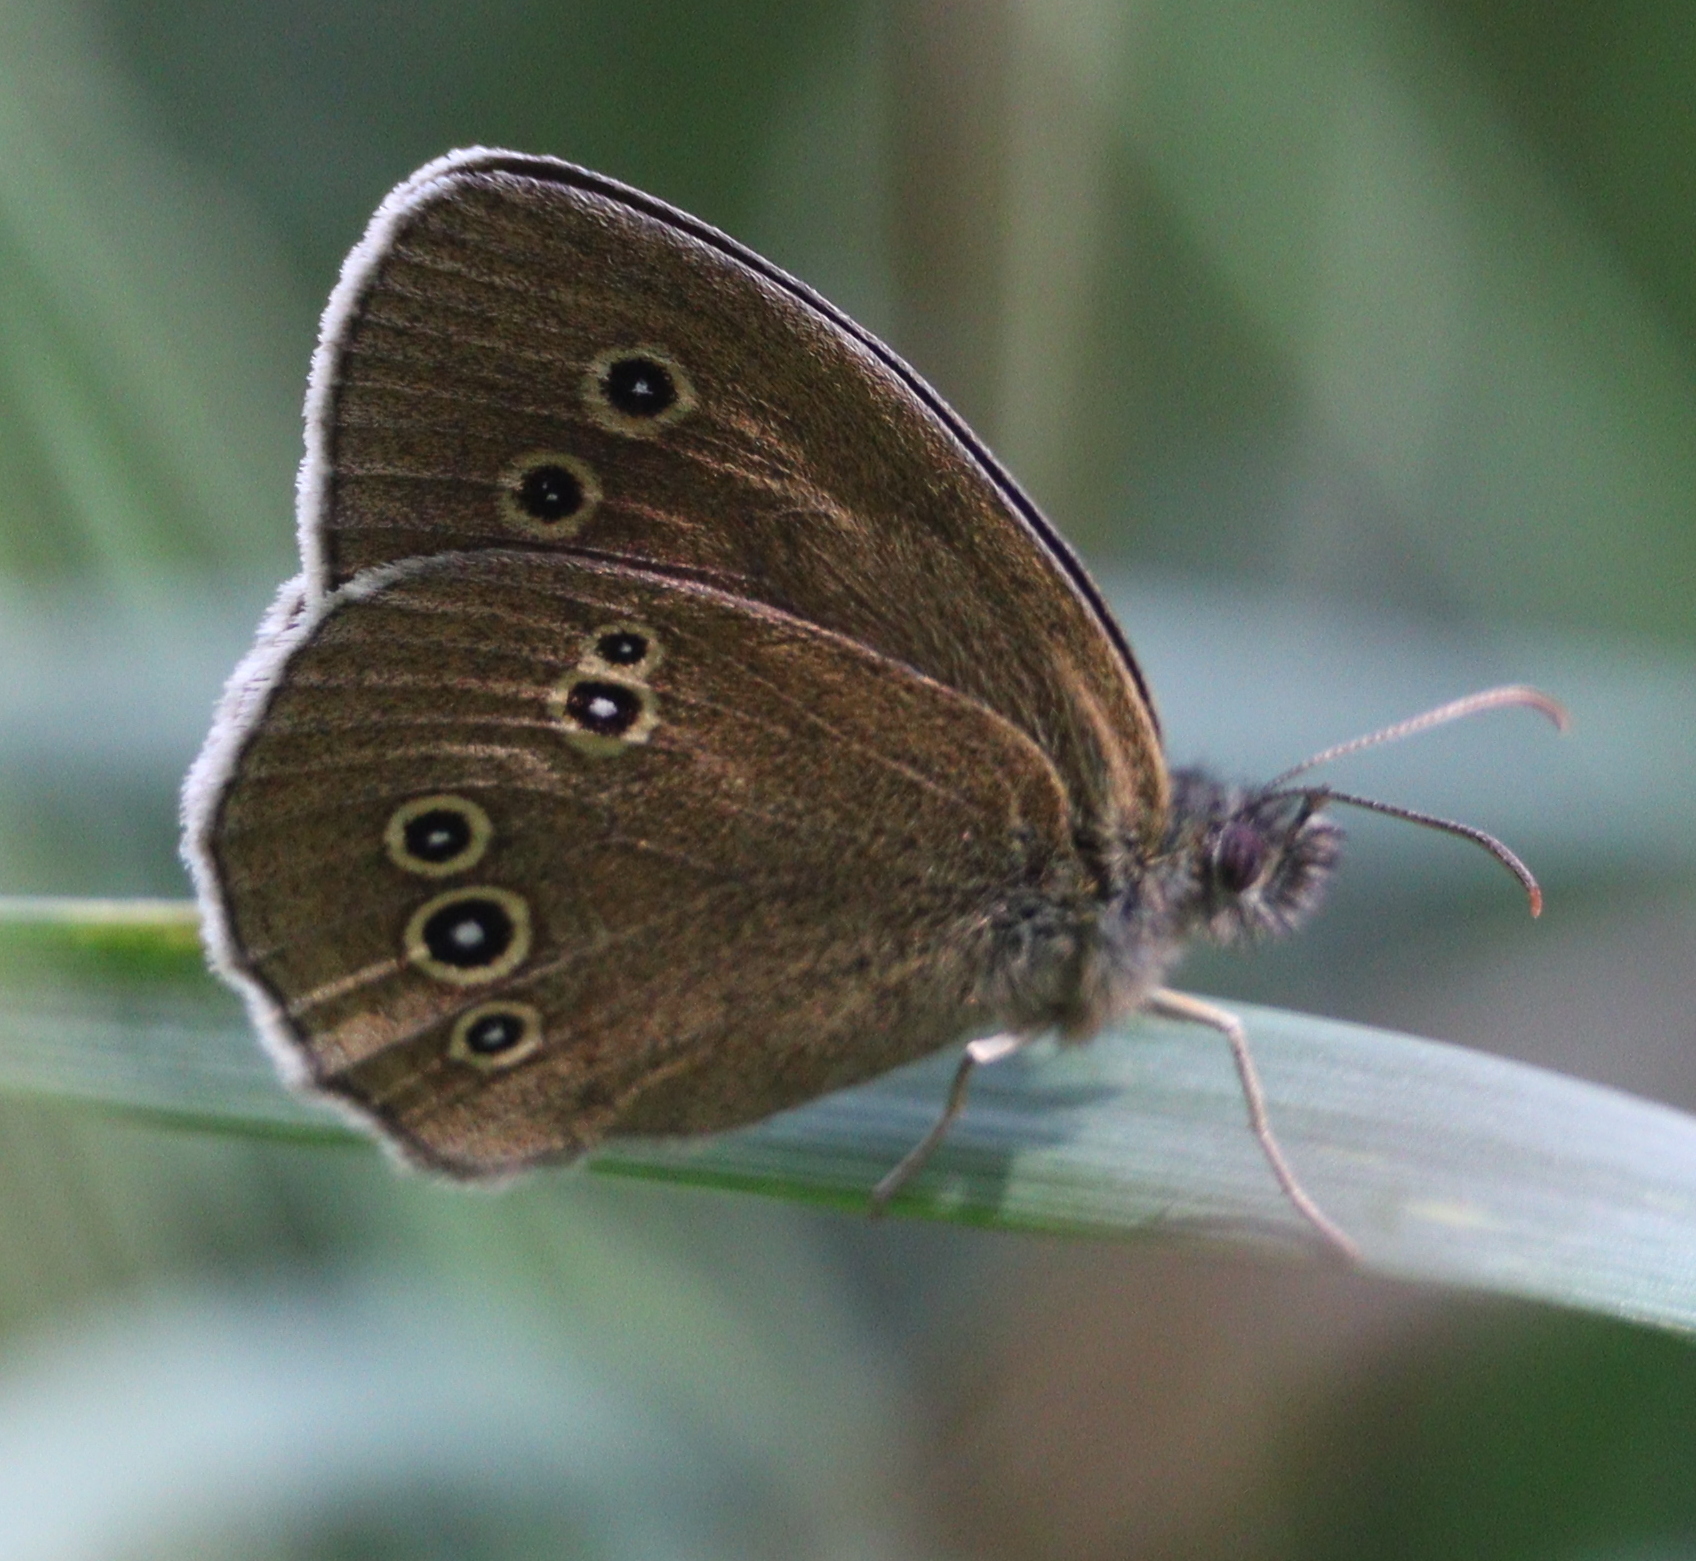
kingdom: Animalia
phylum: Arthropoda
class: Insecta
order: Lepidoptera
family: Nymphalidae
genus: Aphantopus
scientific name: Aphantopus hyperantus
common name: Ringlet
